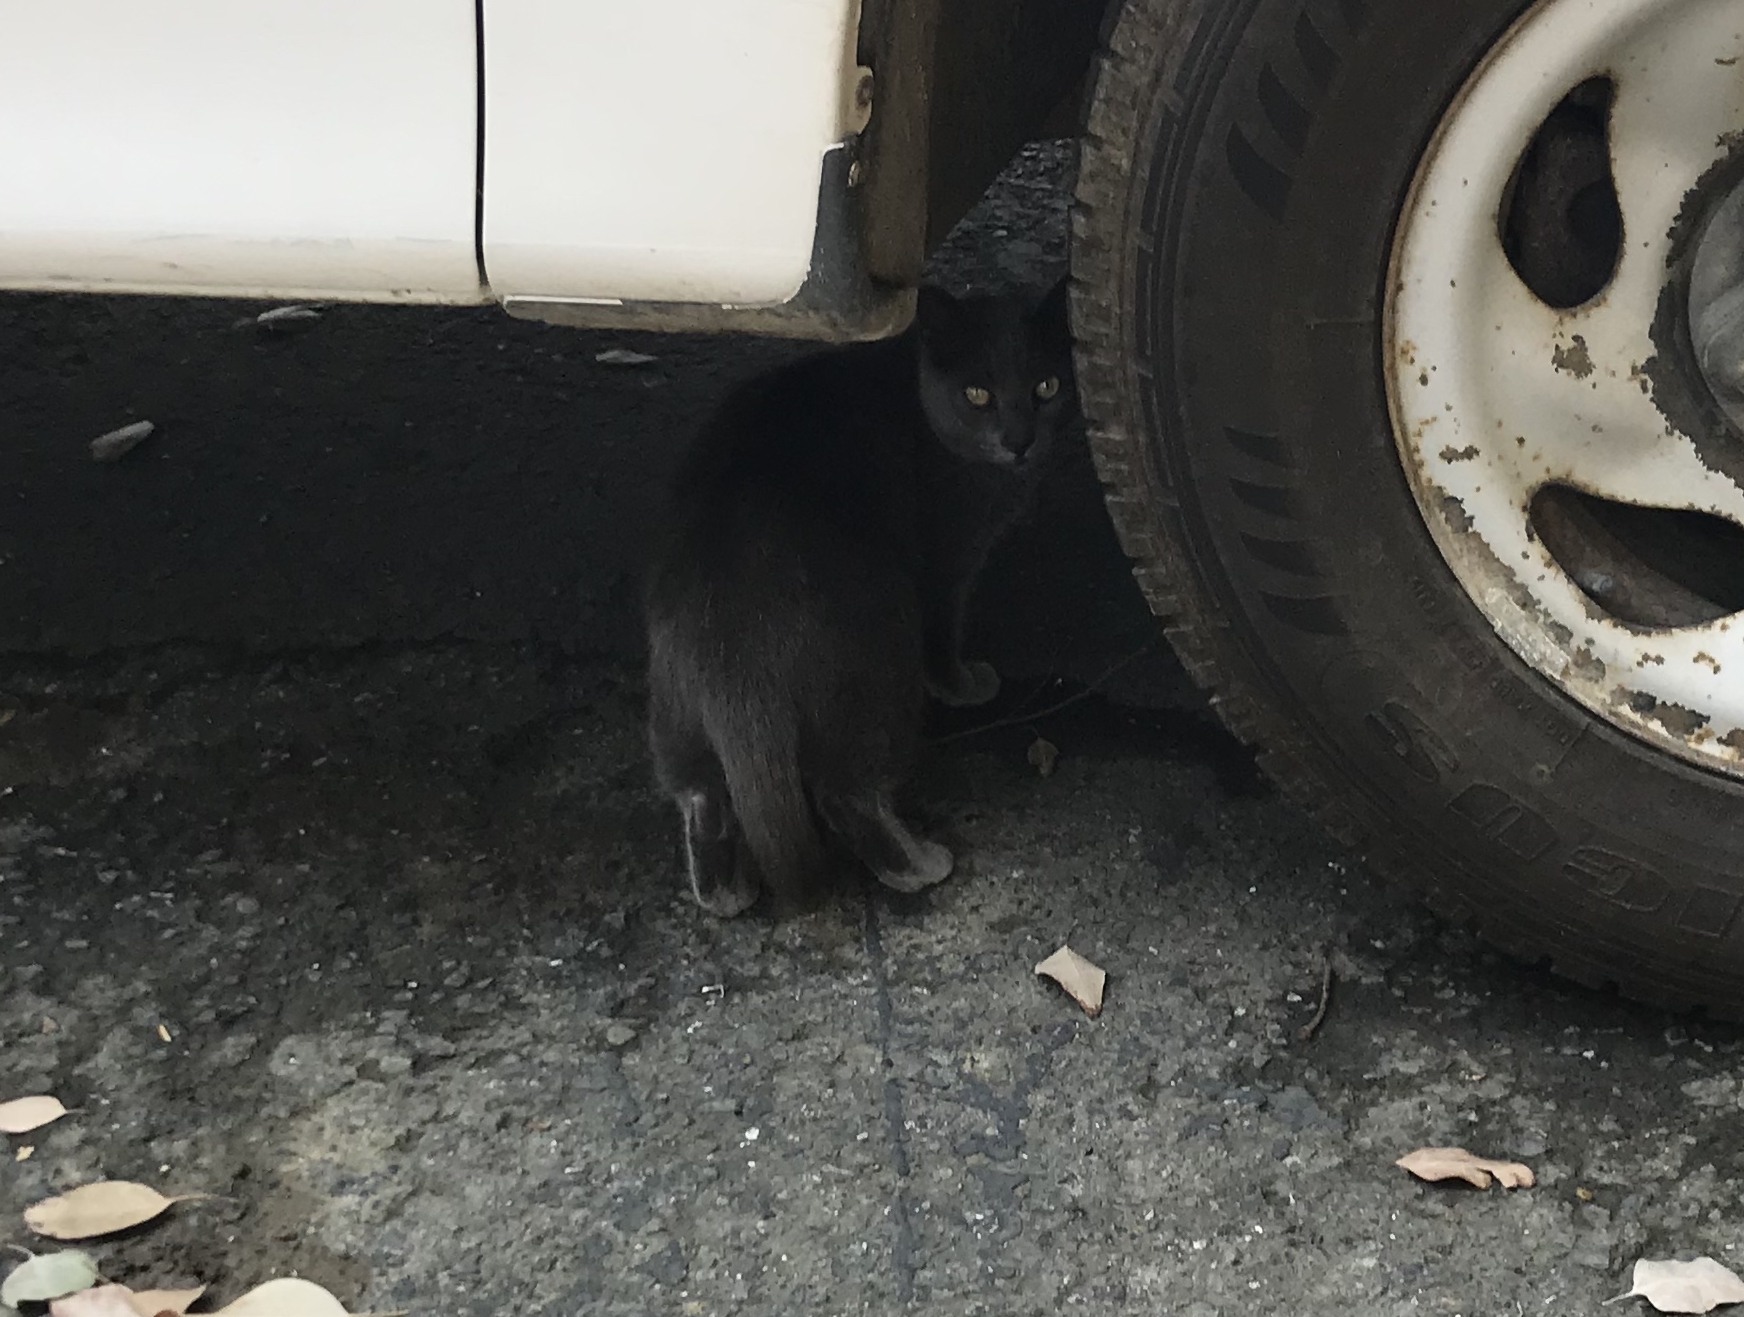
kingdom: Animalia
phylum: Chordata
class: Mammalia
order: Carnivora
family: Felidae
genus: Felis
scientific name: Felis catus
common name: Domestic cat
